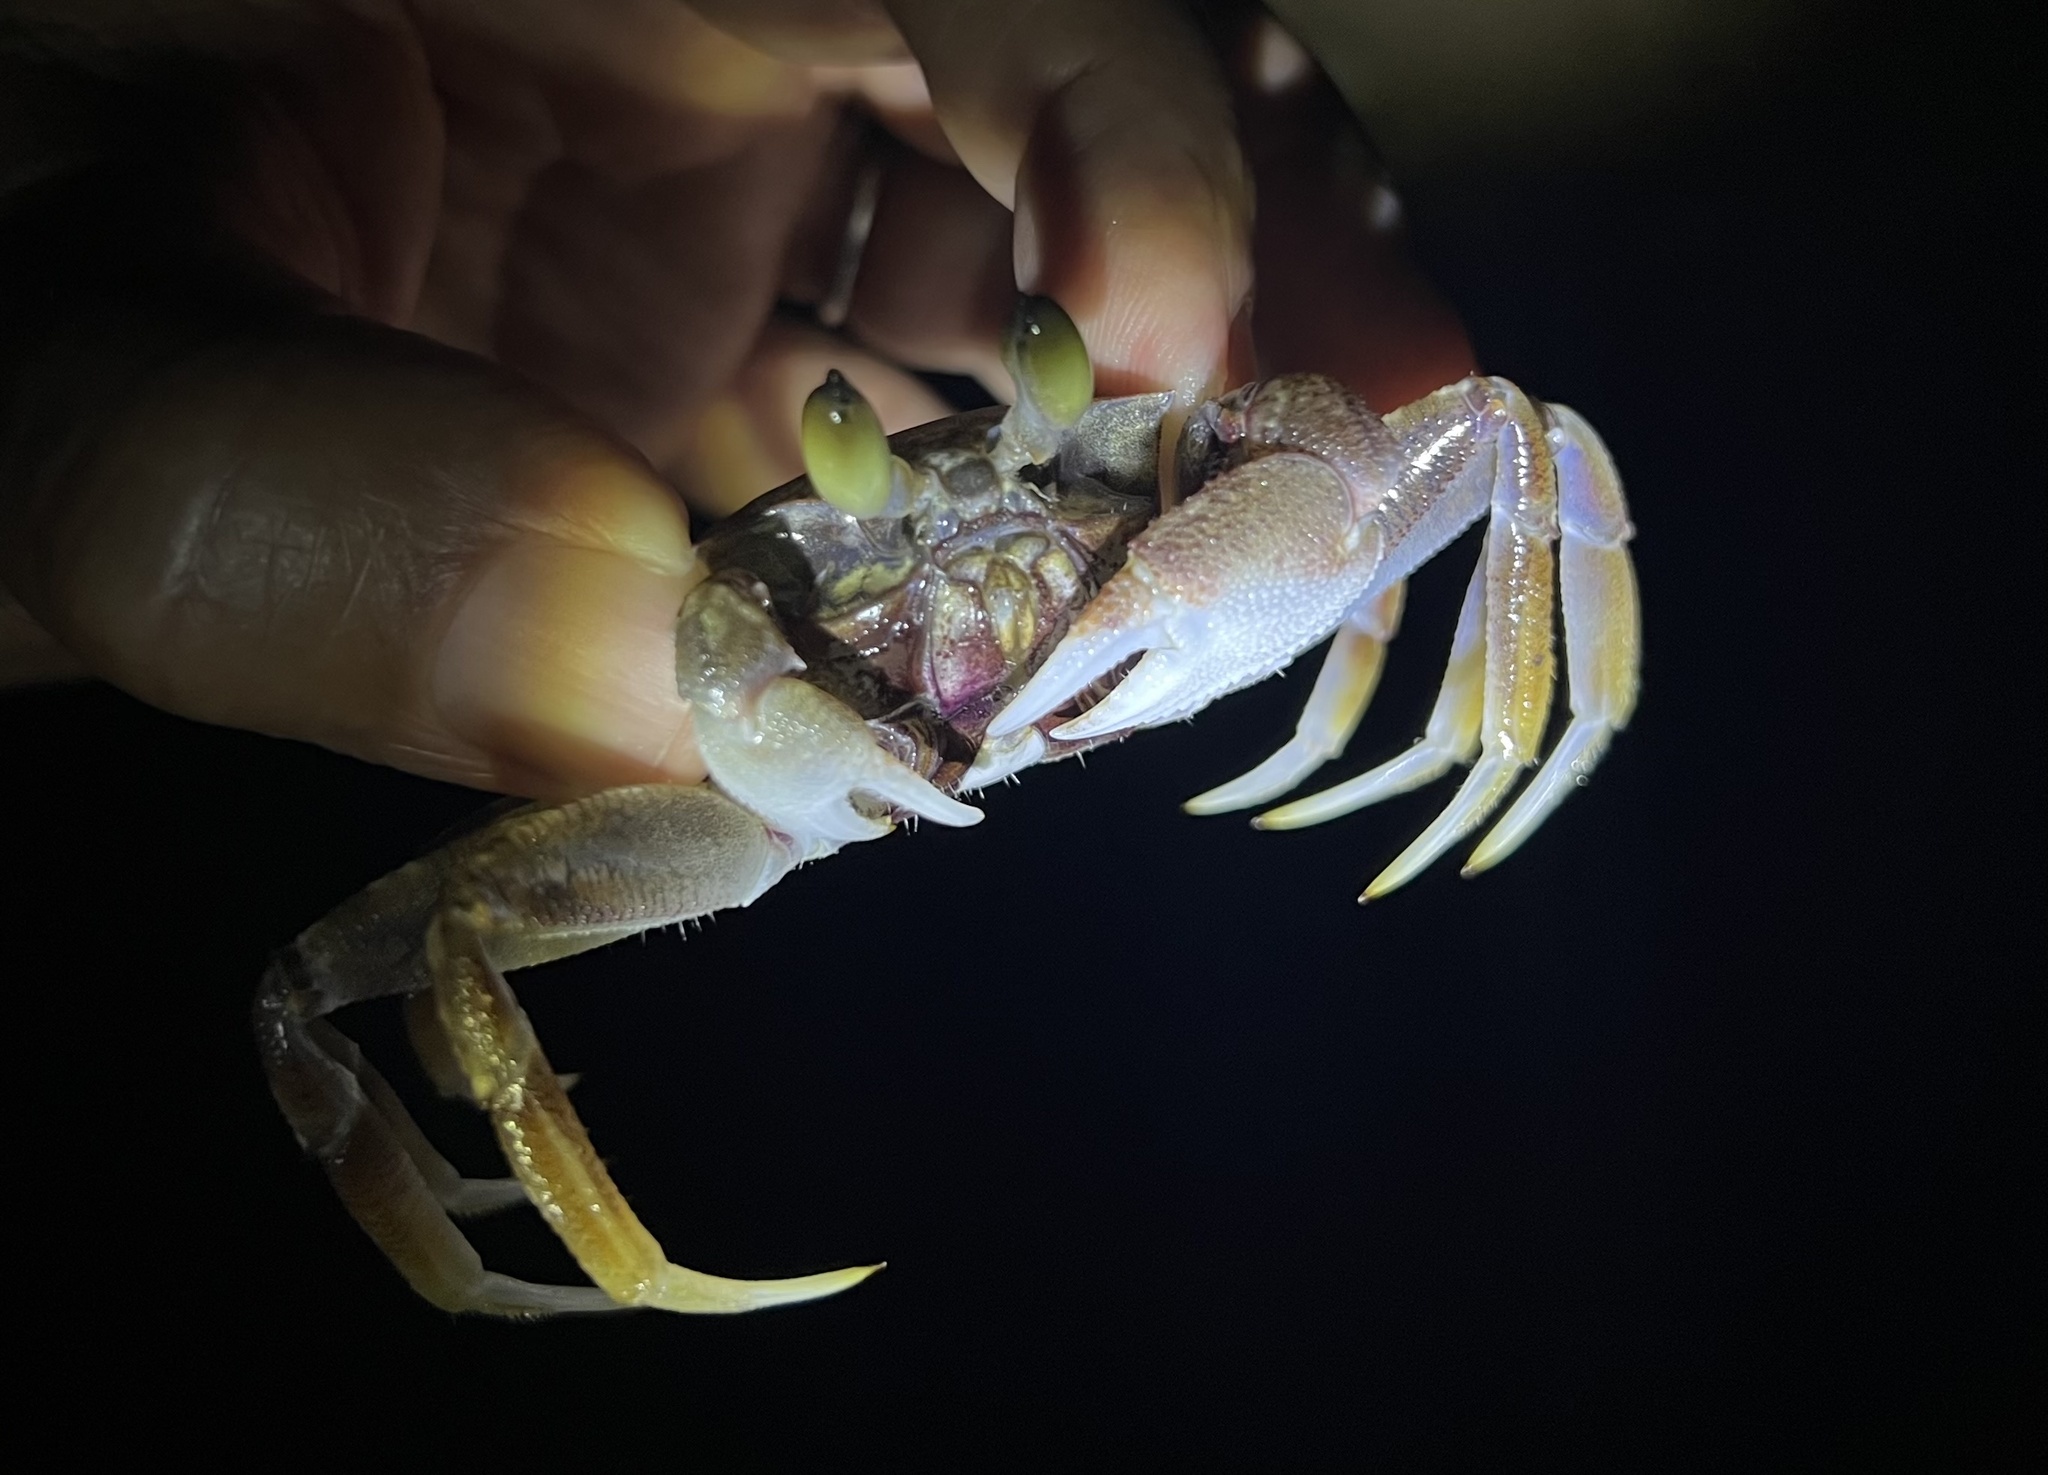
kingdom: Animalia
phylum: Arthropoda
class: Malacostraca
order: Decapoda
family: Ocypodidae
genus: Ocypode
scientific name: Ocypode ceratophthalmus
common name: Indo-pacific ghost crab
